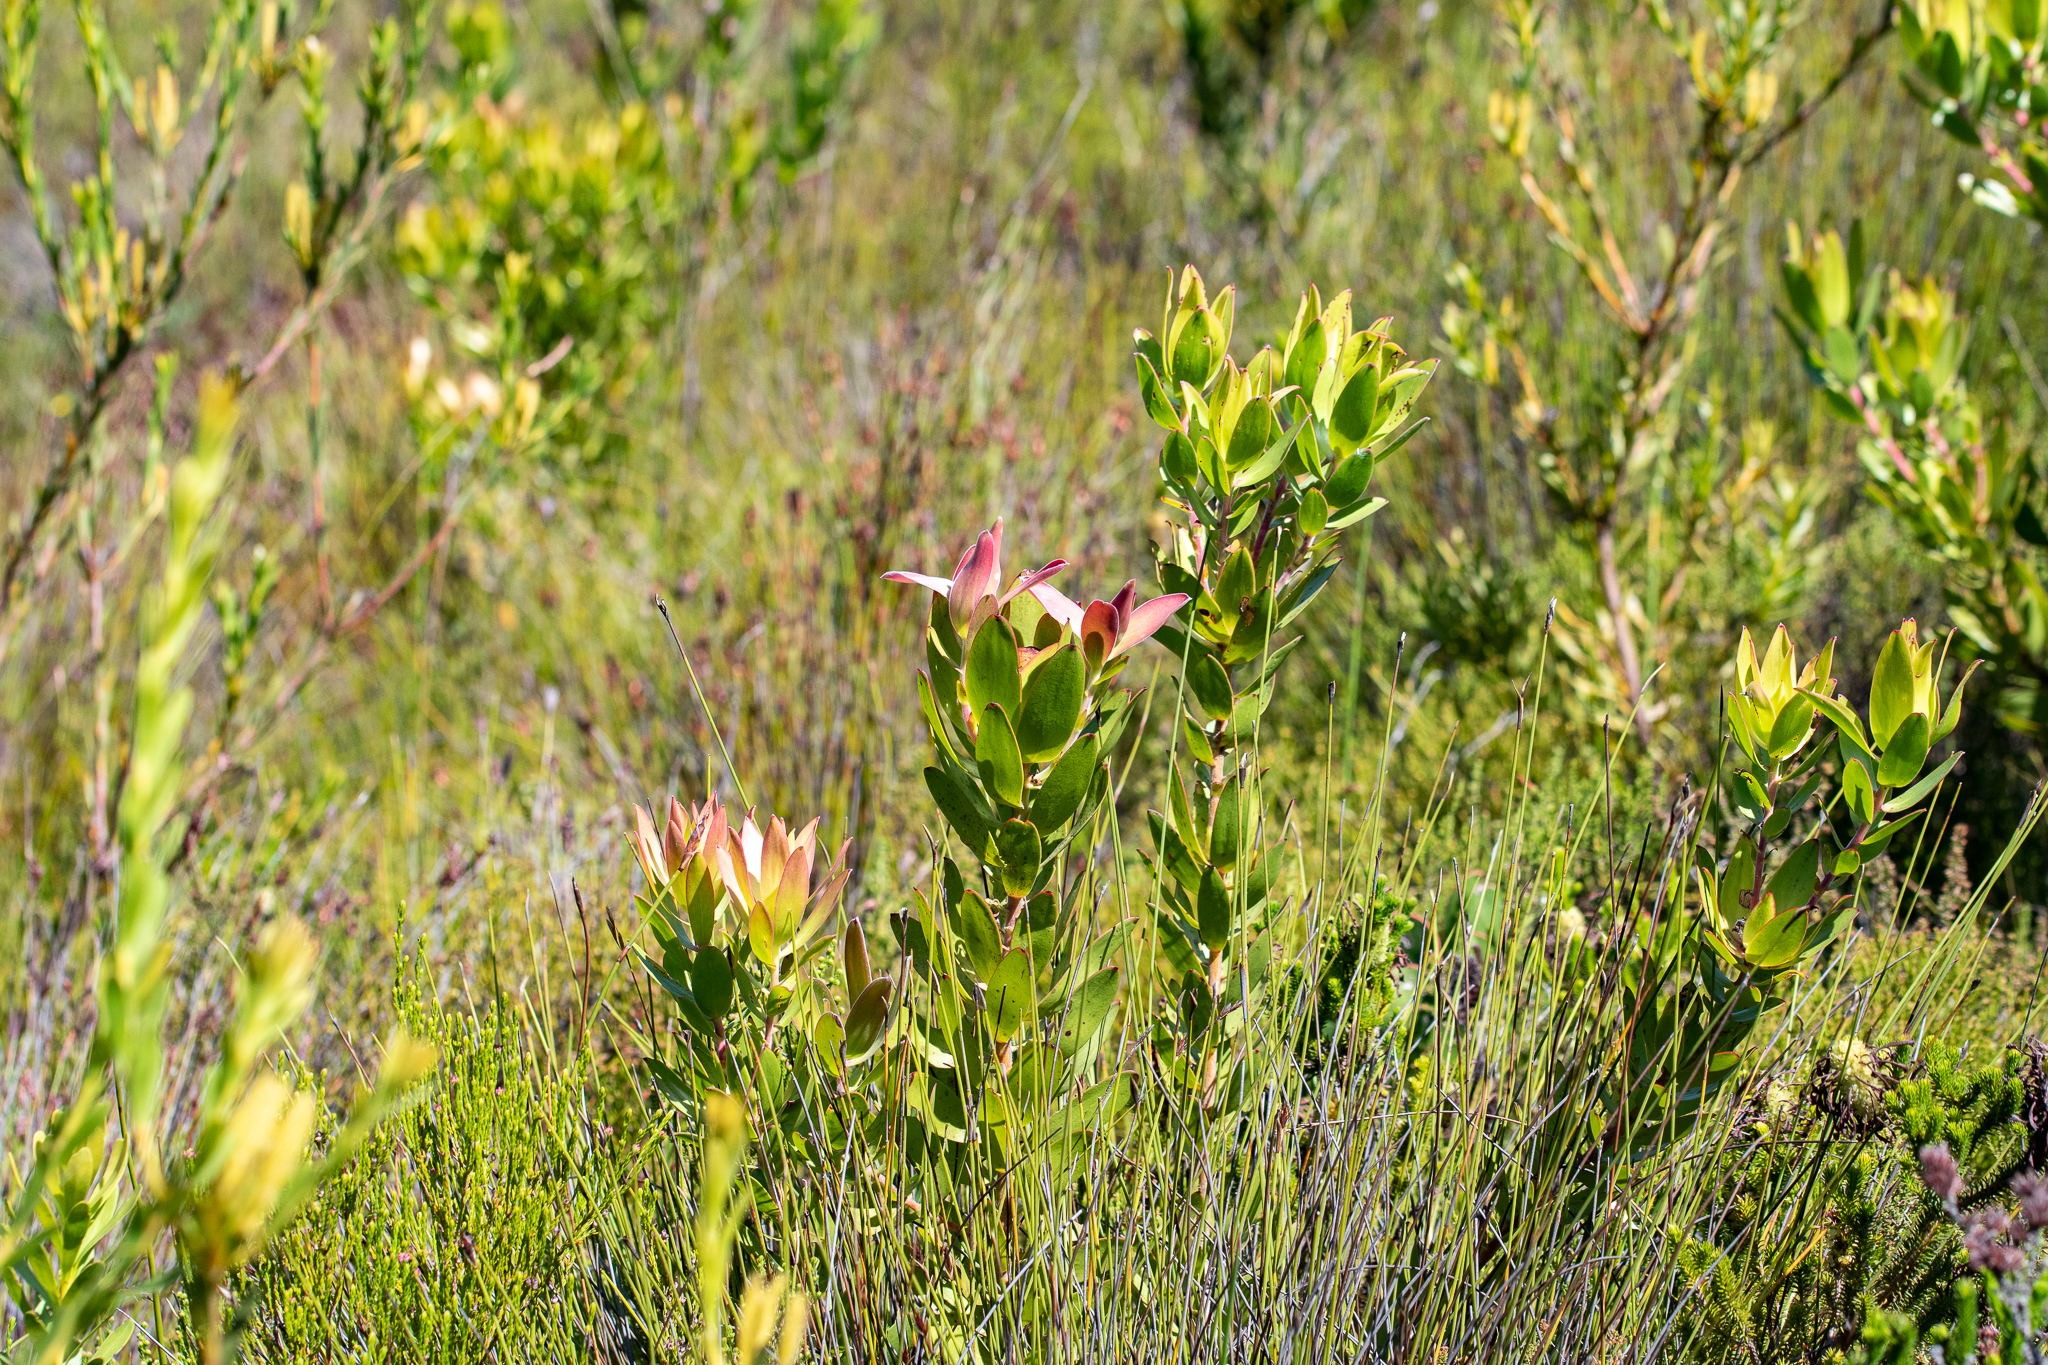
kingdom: Plantae
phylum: Tracheophyta
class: Magnoliopsida
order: Proteales
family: Proteaceae
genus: Leucadendron
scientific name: Leucadendron gandogeri
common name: Broad-leaf conebush
